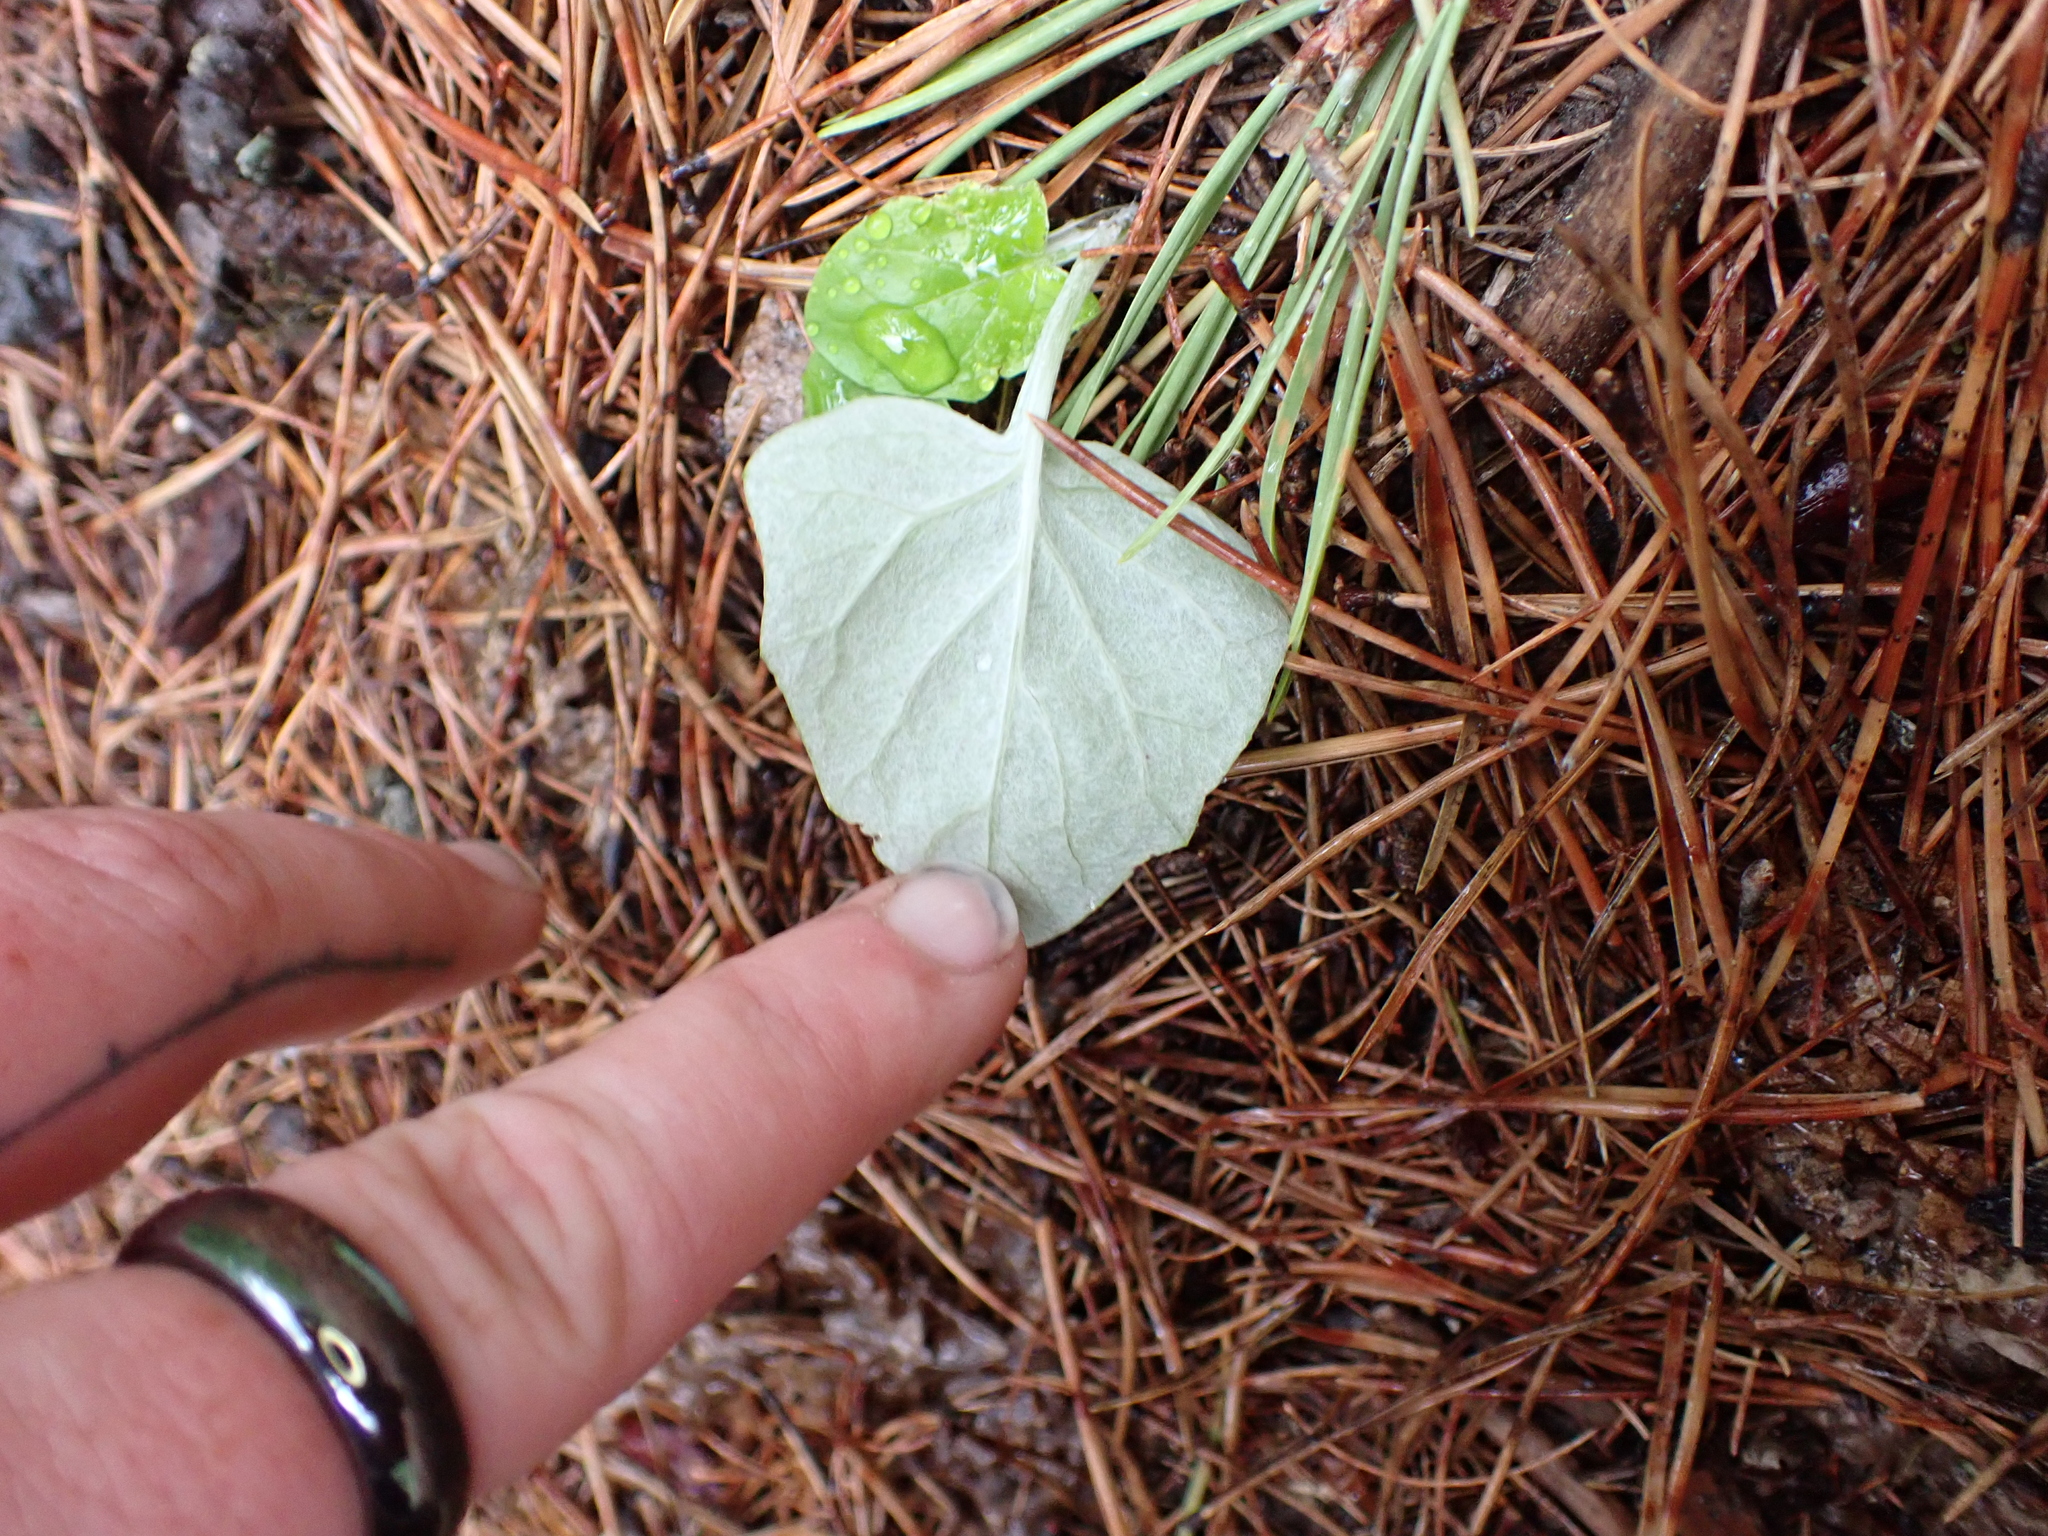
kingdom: Plantae
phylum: Tracheophyta
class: Magnoliopsida
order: Asterales
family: Asteraceae
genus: Adenocaulon
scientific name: Adenocaulon bicolor
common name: Trailplant
